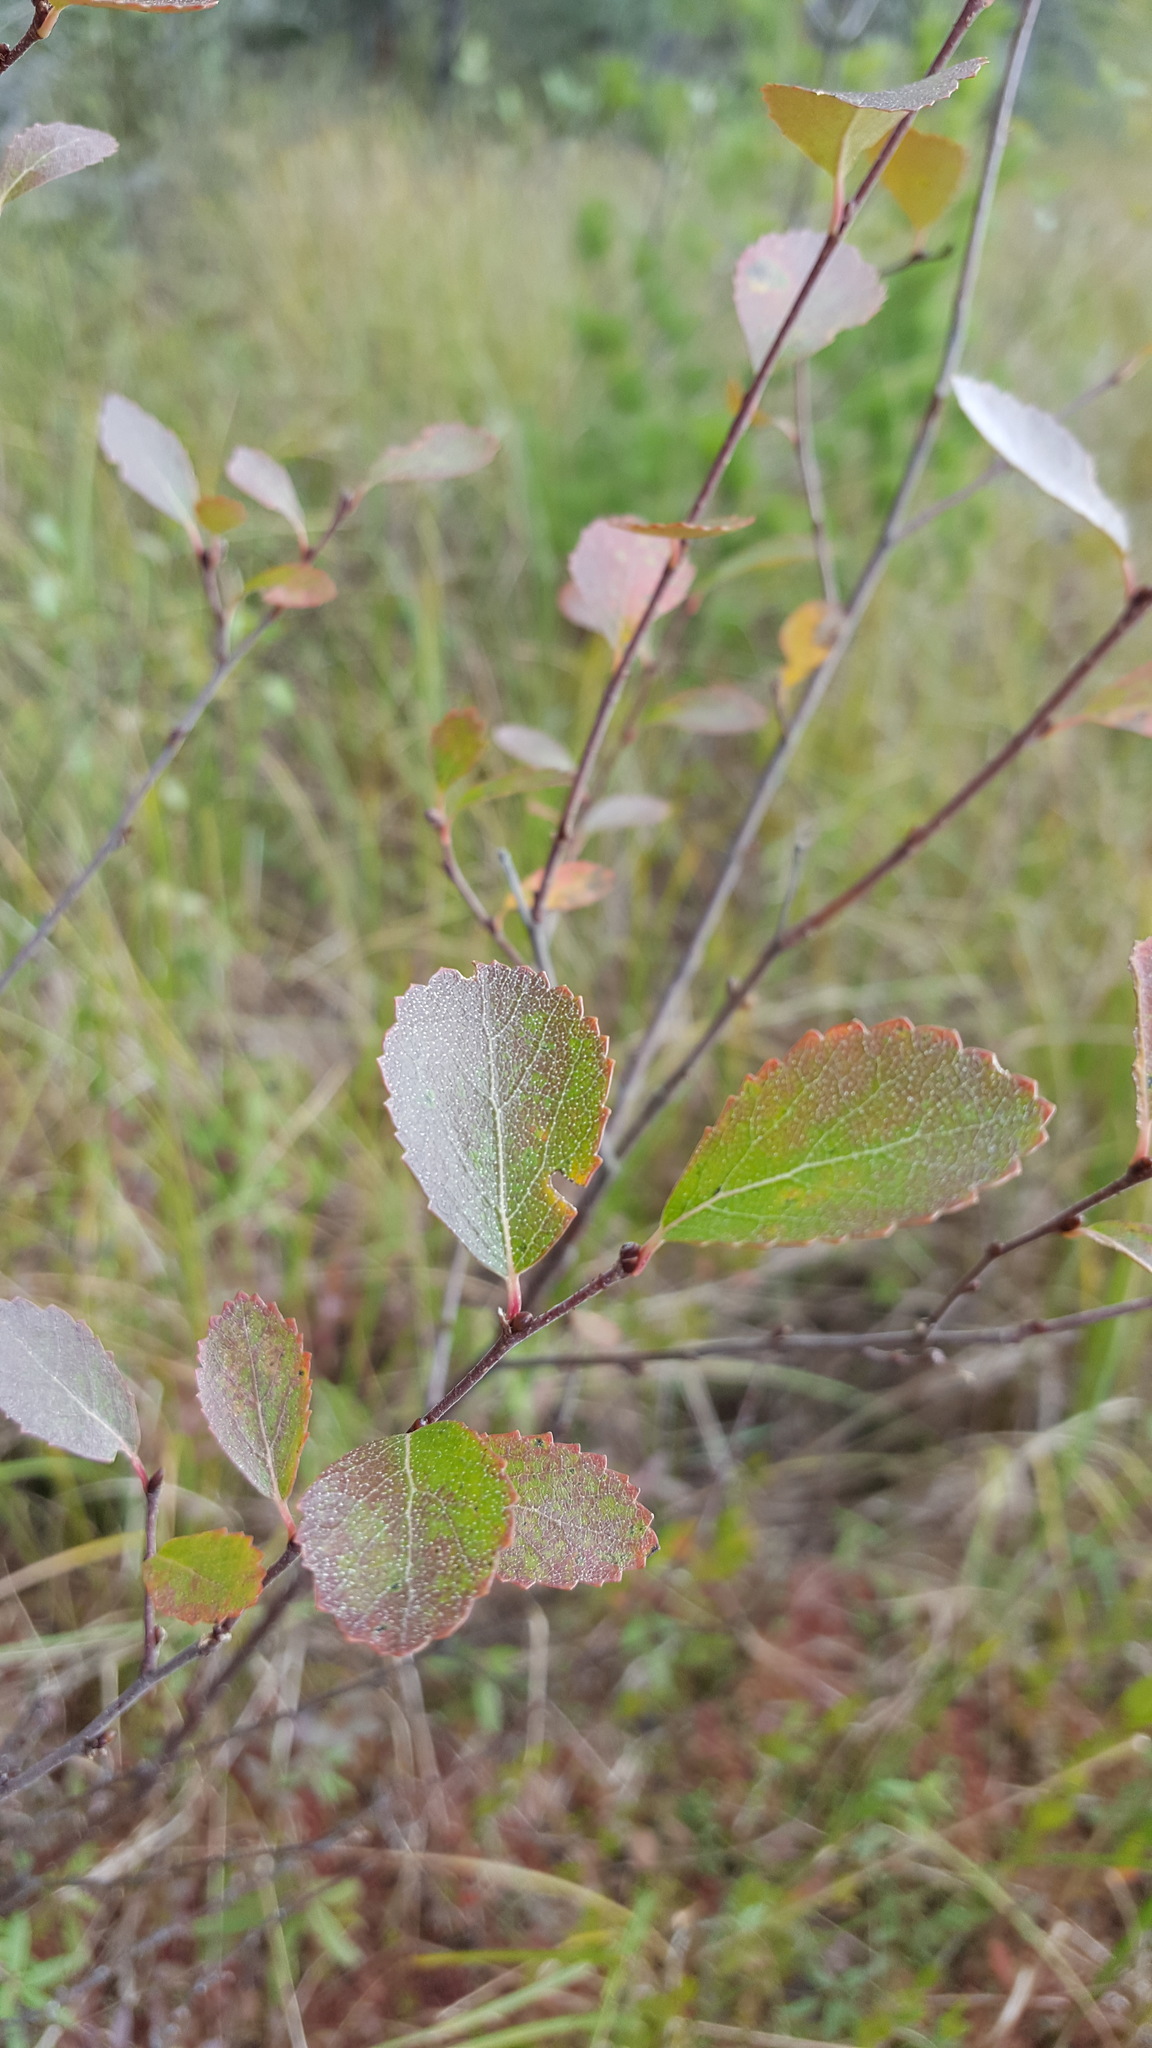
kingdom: Plantae
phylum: Tracheophyta
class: Magnoliopsida
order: Fagales
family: Betulaceae
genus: Betula
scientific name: Betula pumila
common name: Bog birch
